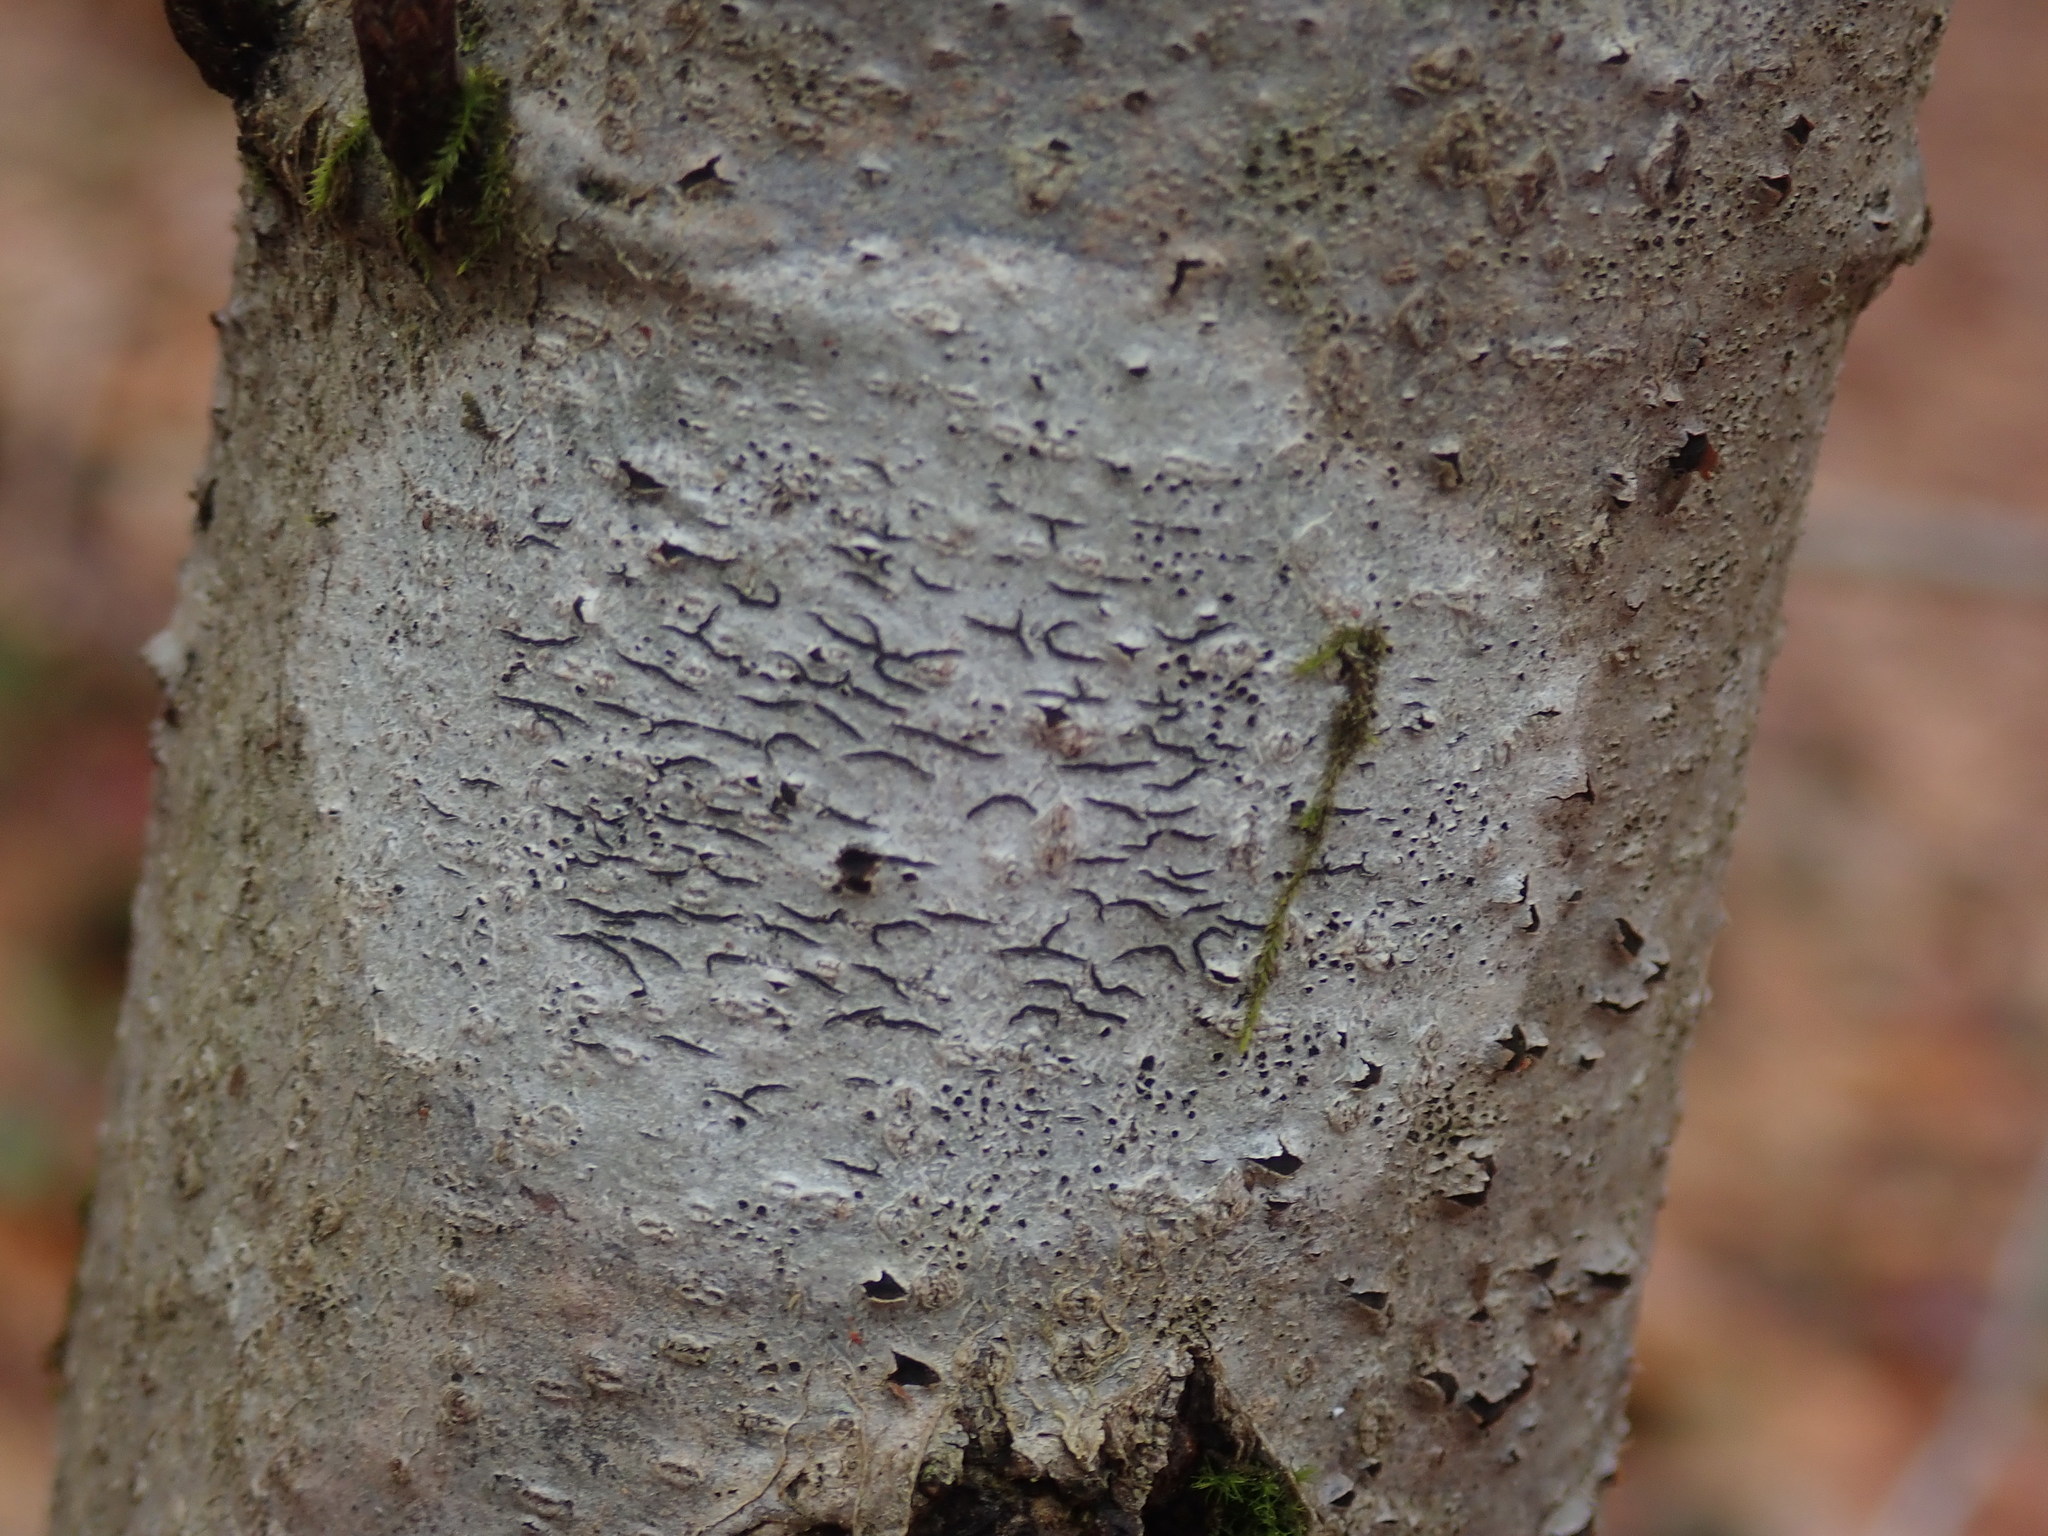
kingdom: Fungi
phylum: Ascomycota
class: Lecanoromycetes
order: Ostropales
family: Graphidaceae
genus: Graphis
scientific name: Graphis scripta
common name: Script lichen
